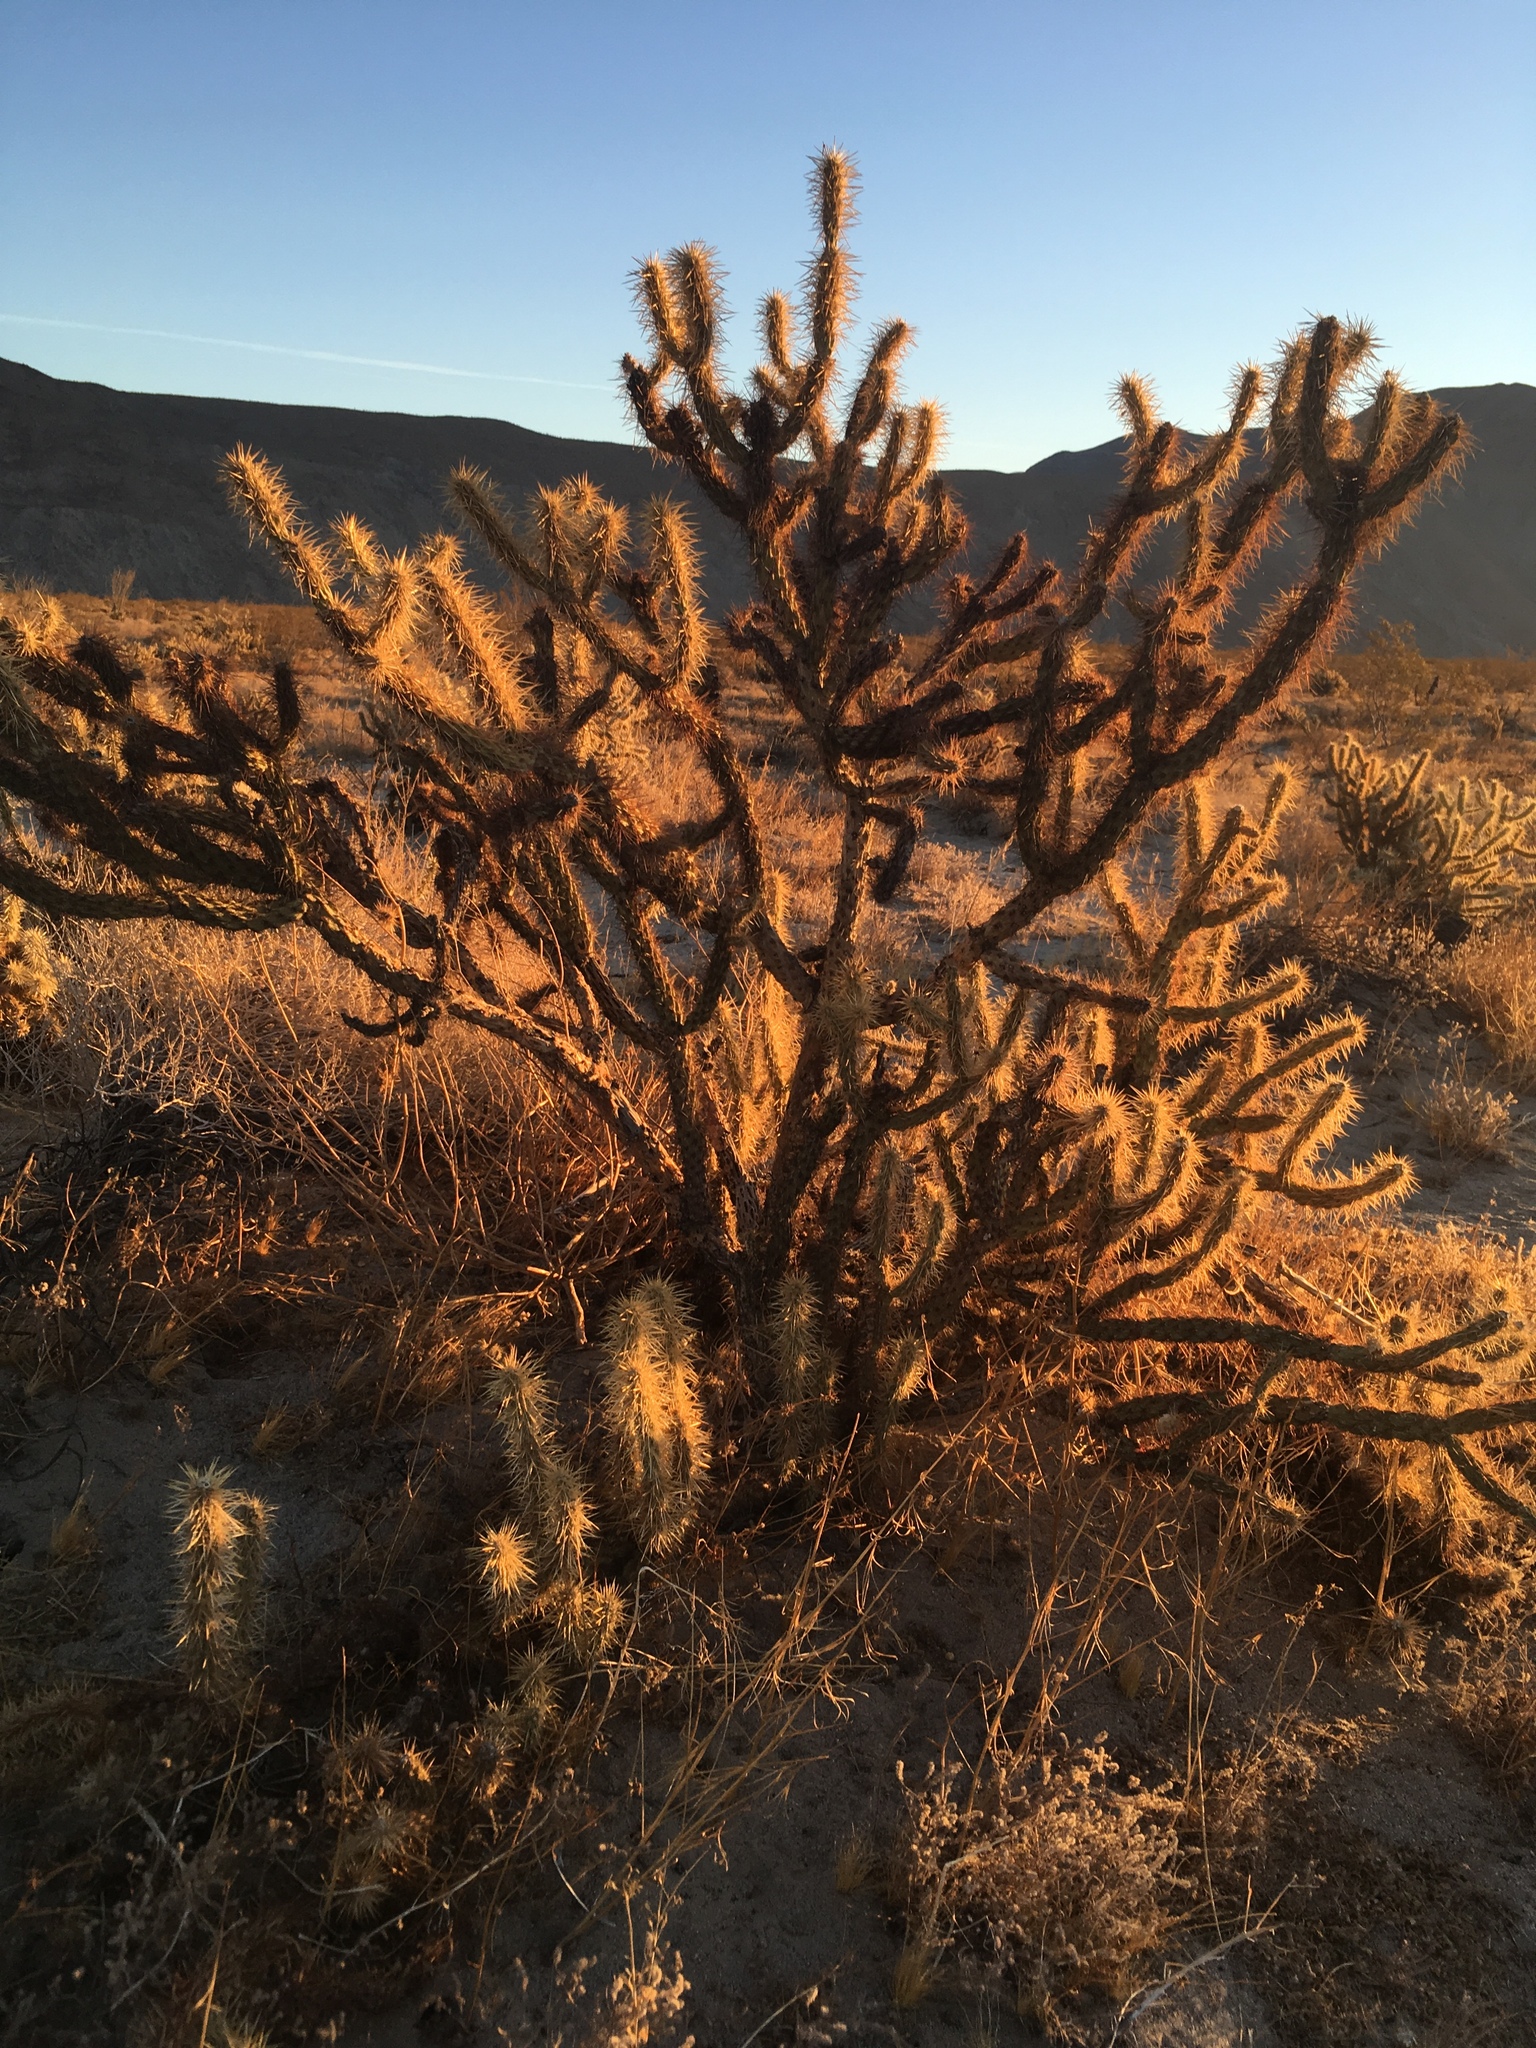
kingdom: Plantae
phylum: Tracheophyta
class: Magnoliopsida
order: Caryophyllales
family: Cactaceae
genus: Cylindropuntia
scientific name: Cylindropuntia ganderi
